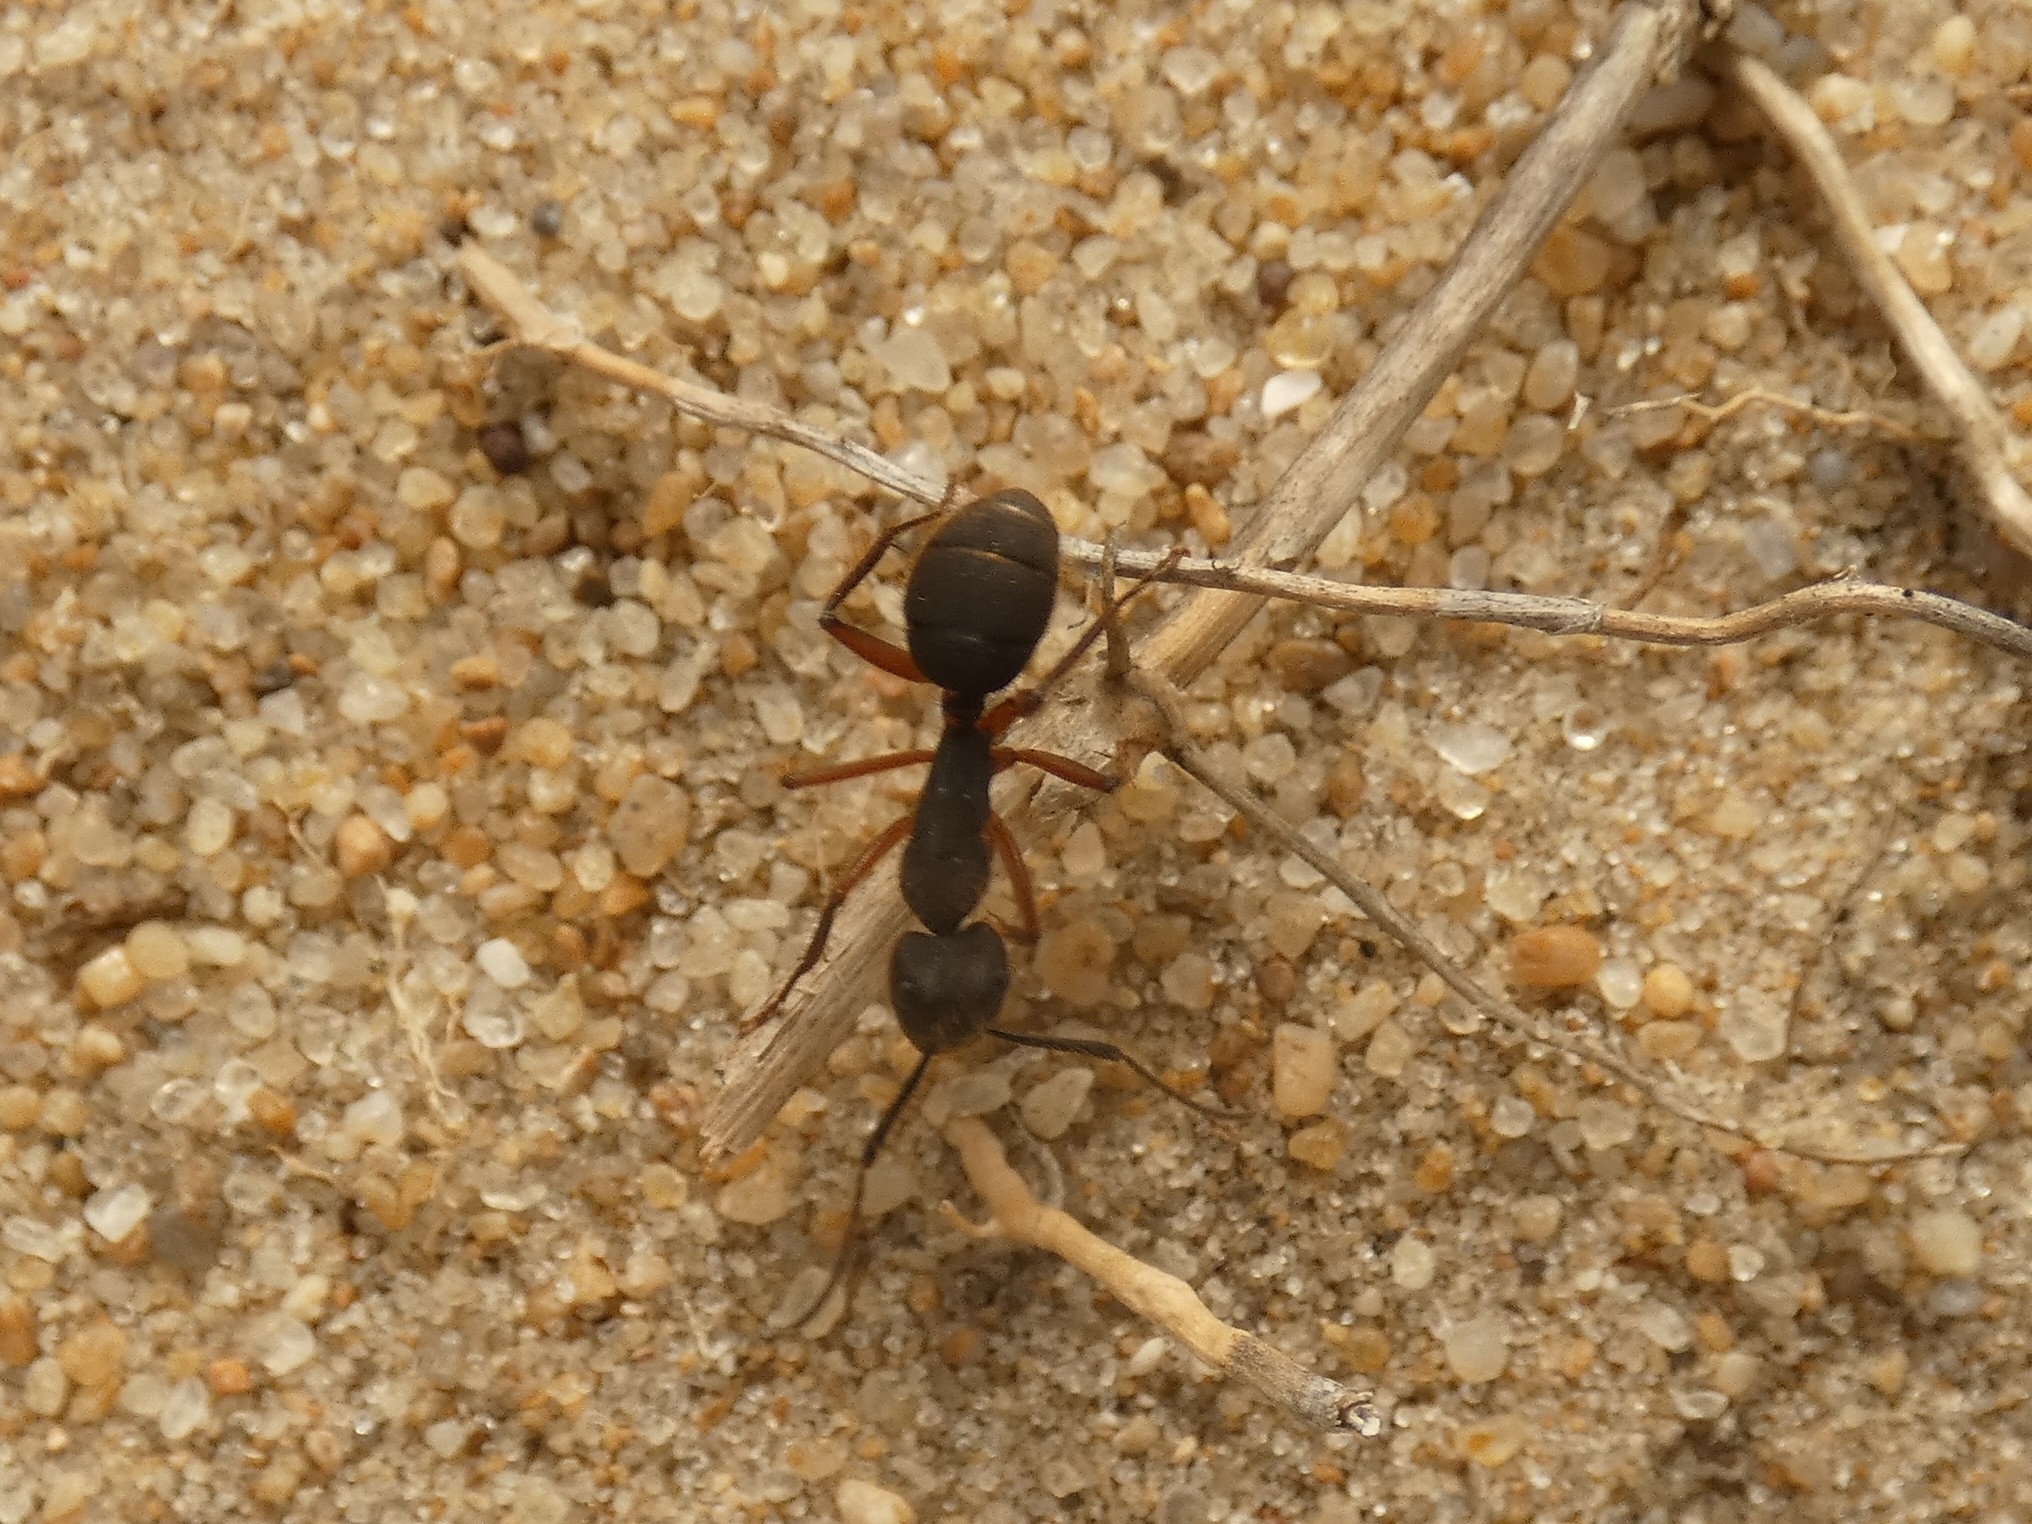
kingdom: Animalia
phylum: Arthropoda
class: Insecta
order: Hymenoptera
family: Formicidae
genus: Camponotus
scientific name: Camponotus rufipes
